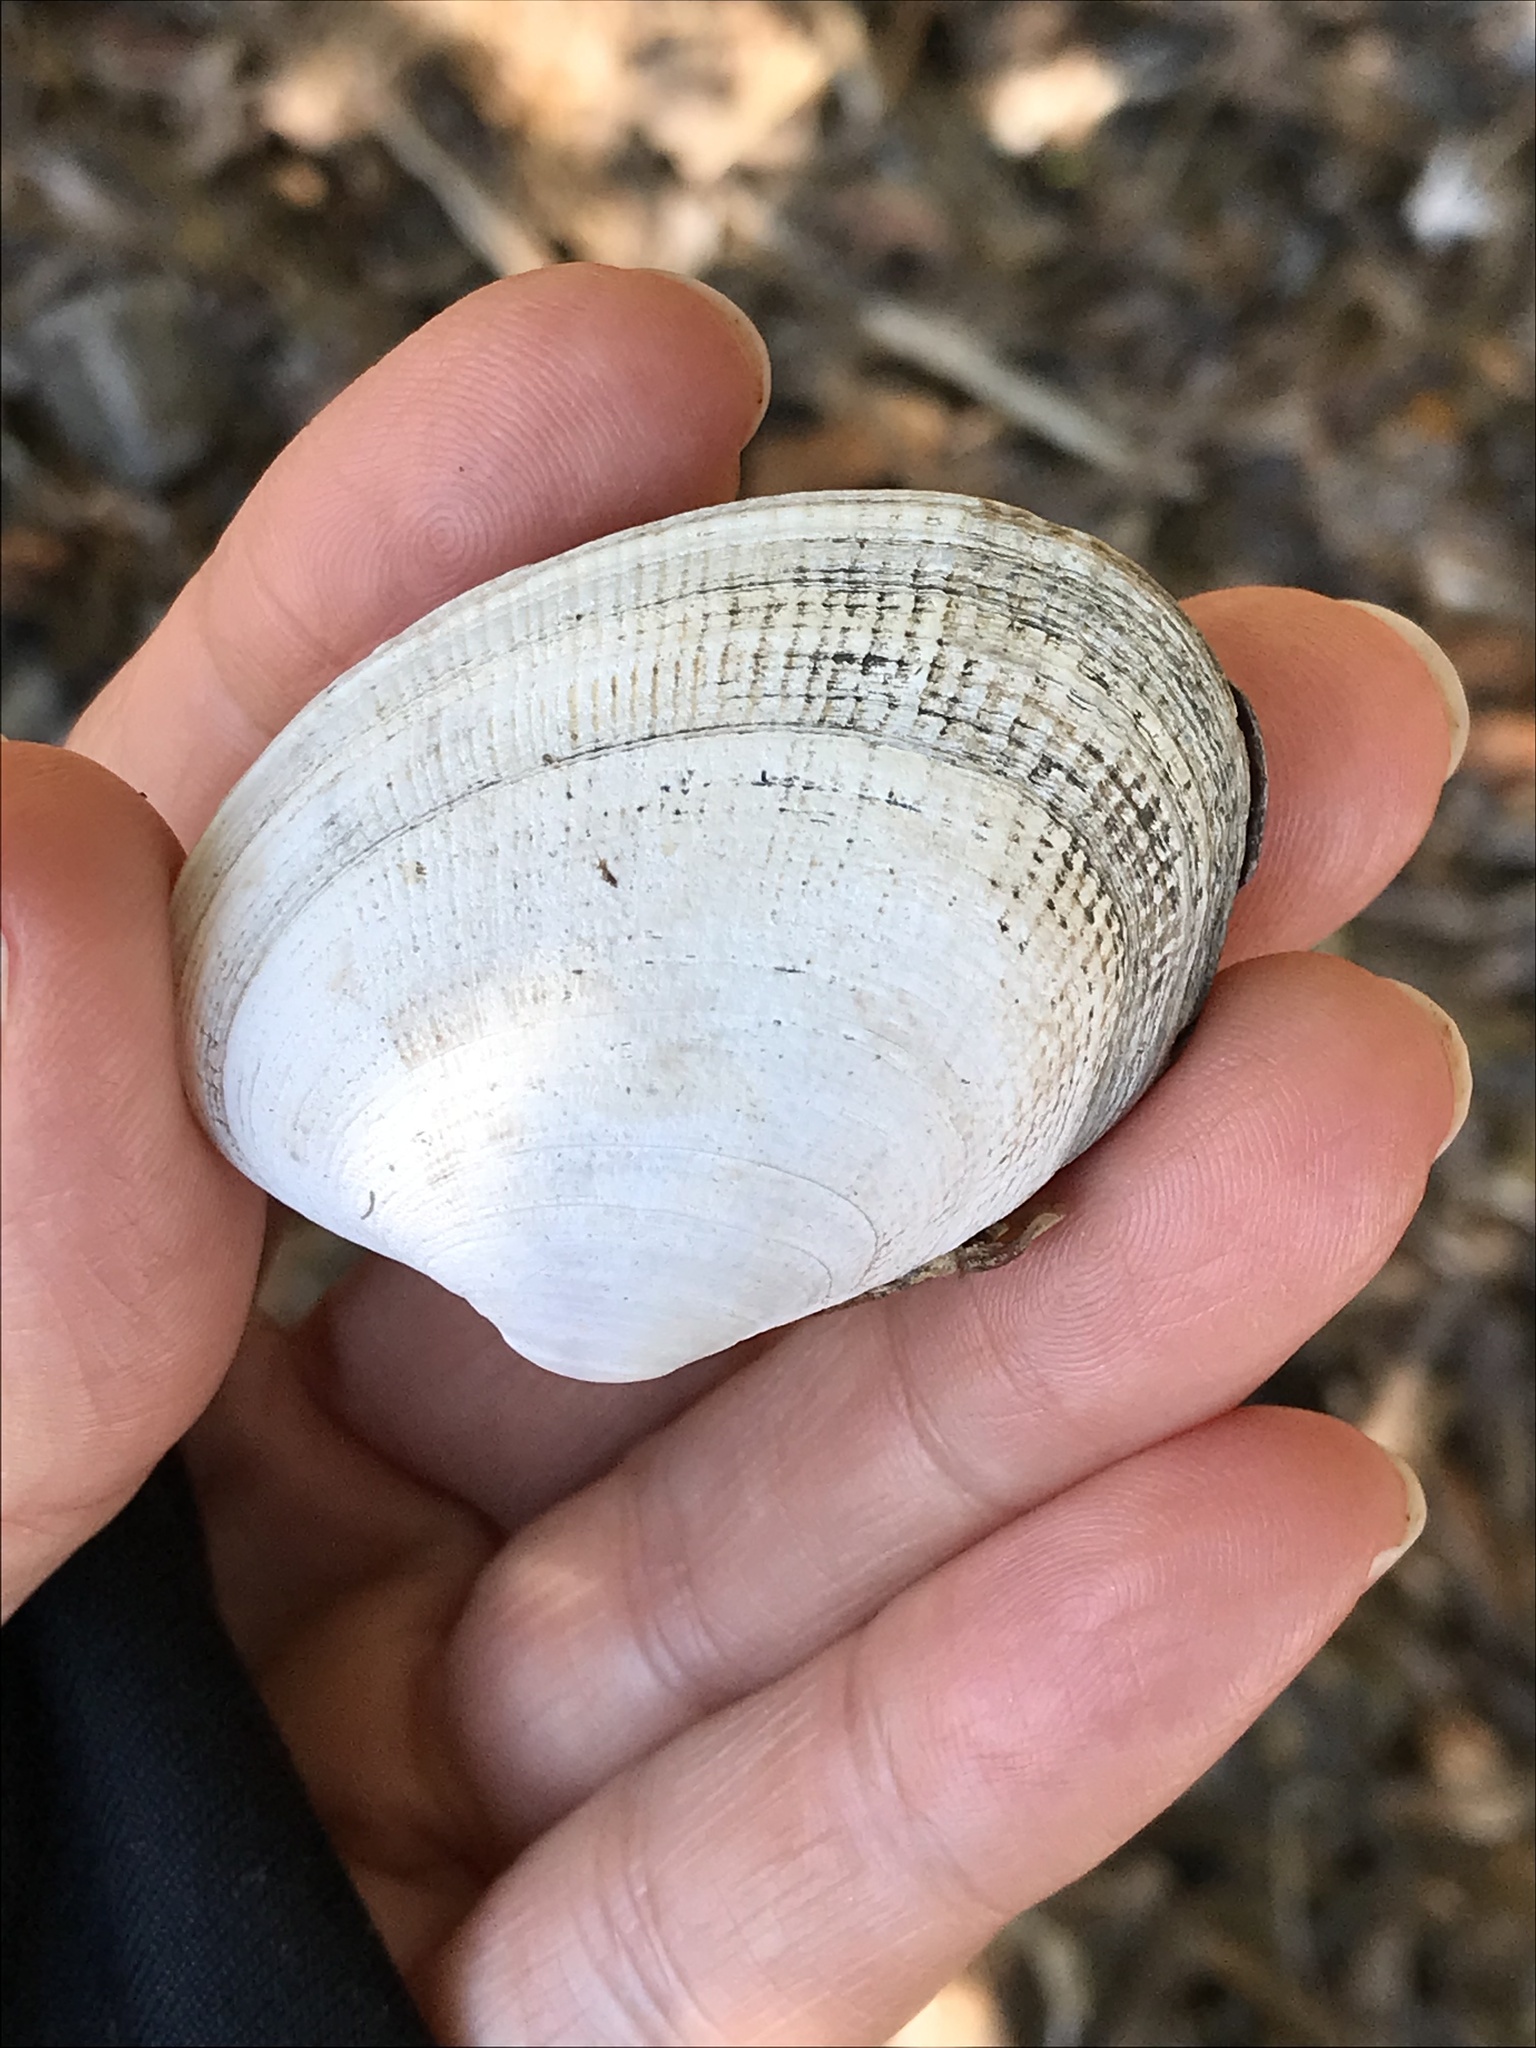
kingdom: Animalia
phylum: Mollusca
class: Bivalvia
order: Venerida
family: Veneridae
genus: Ruditapes
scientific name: Ruditapes philippinarum
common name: Manila clam
